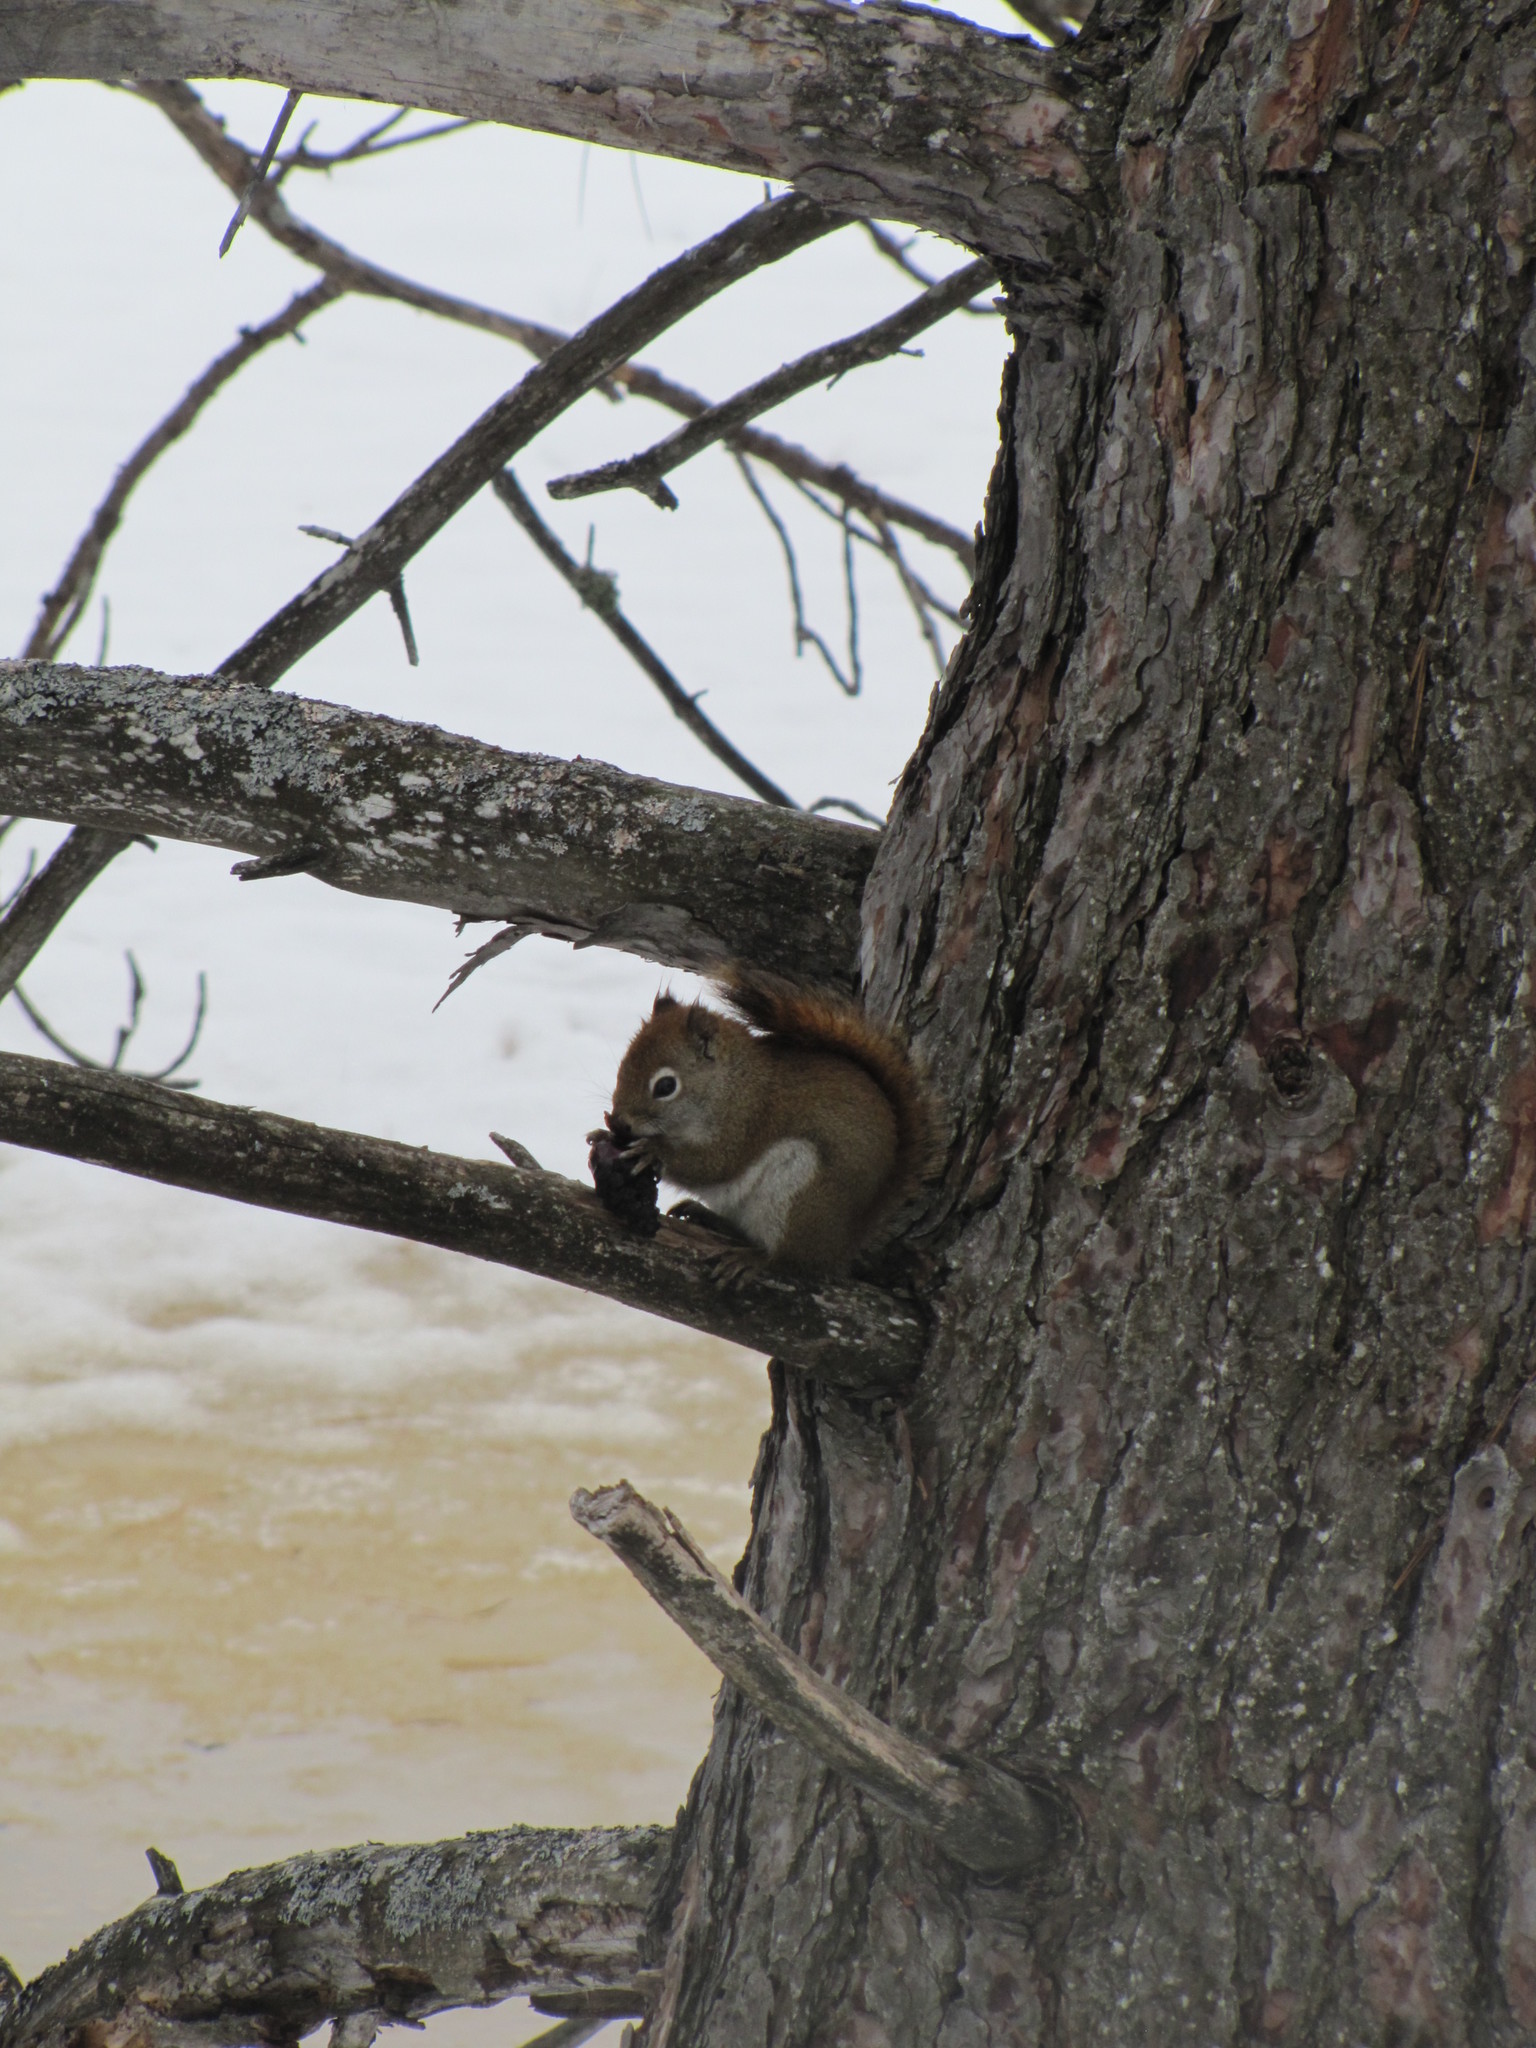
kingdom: Animalia
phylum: Chordata
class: Mammalia
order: Rodentia
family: Sciuridae
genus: Tamiasciurus
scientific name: Tamiasciurus hudsonicus
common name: Red squirrel
